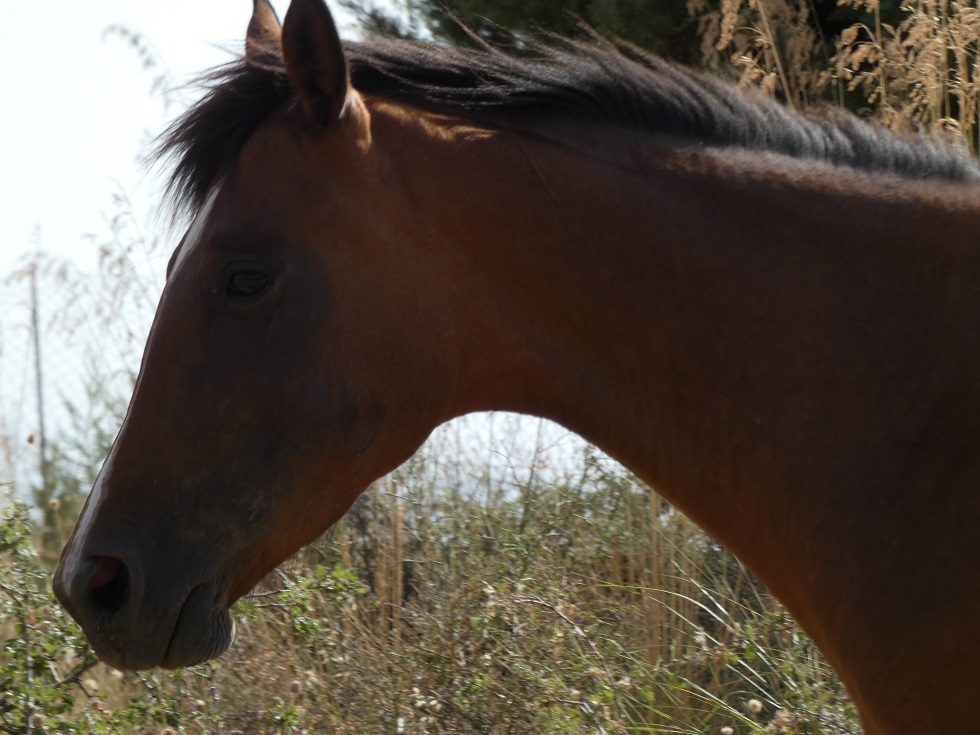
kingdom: Animalia
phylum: Chordata
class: Mammalia
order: Perissodactyla
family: Equidae
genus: Equus
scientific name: Equus caballus
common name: Horse
